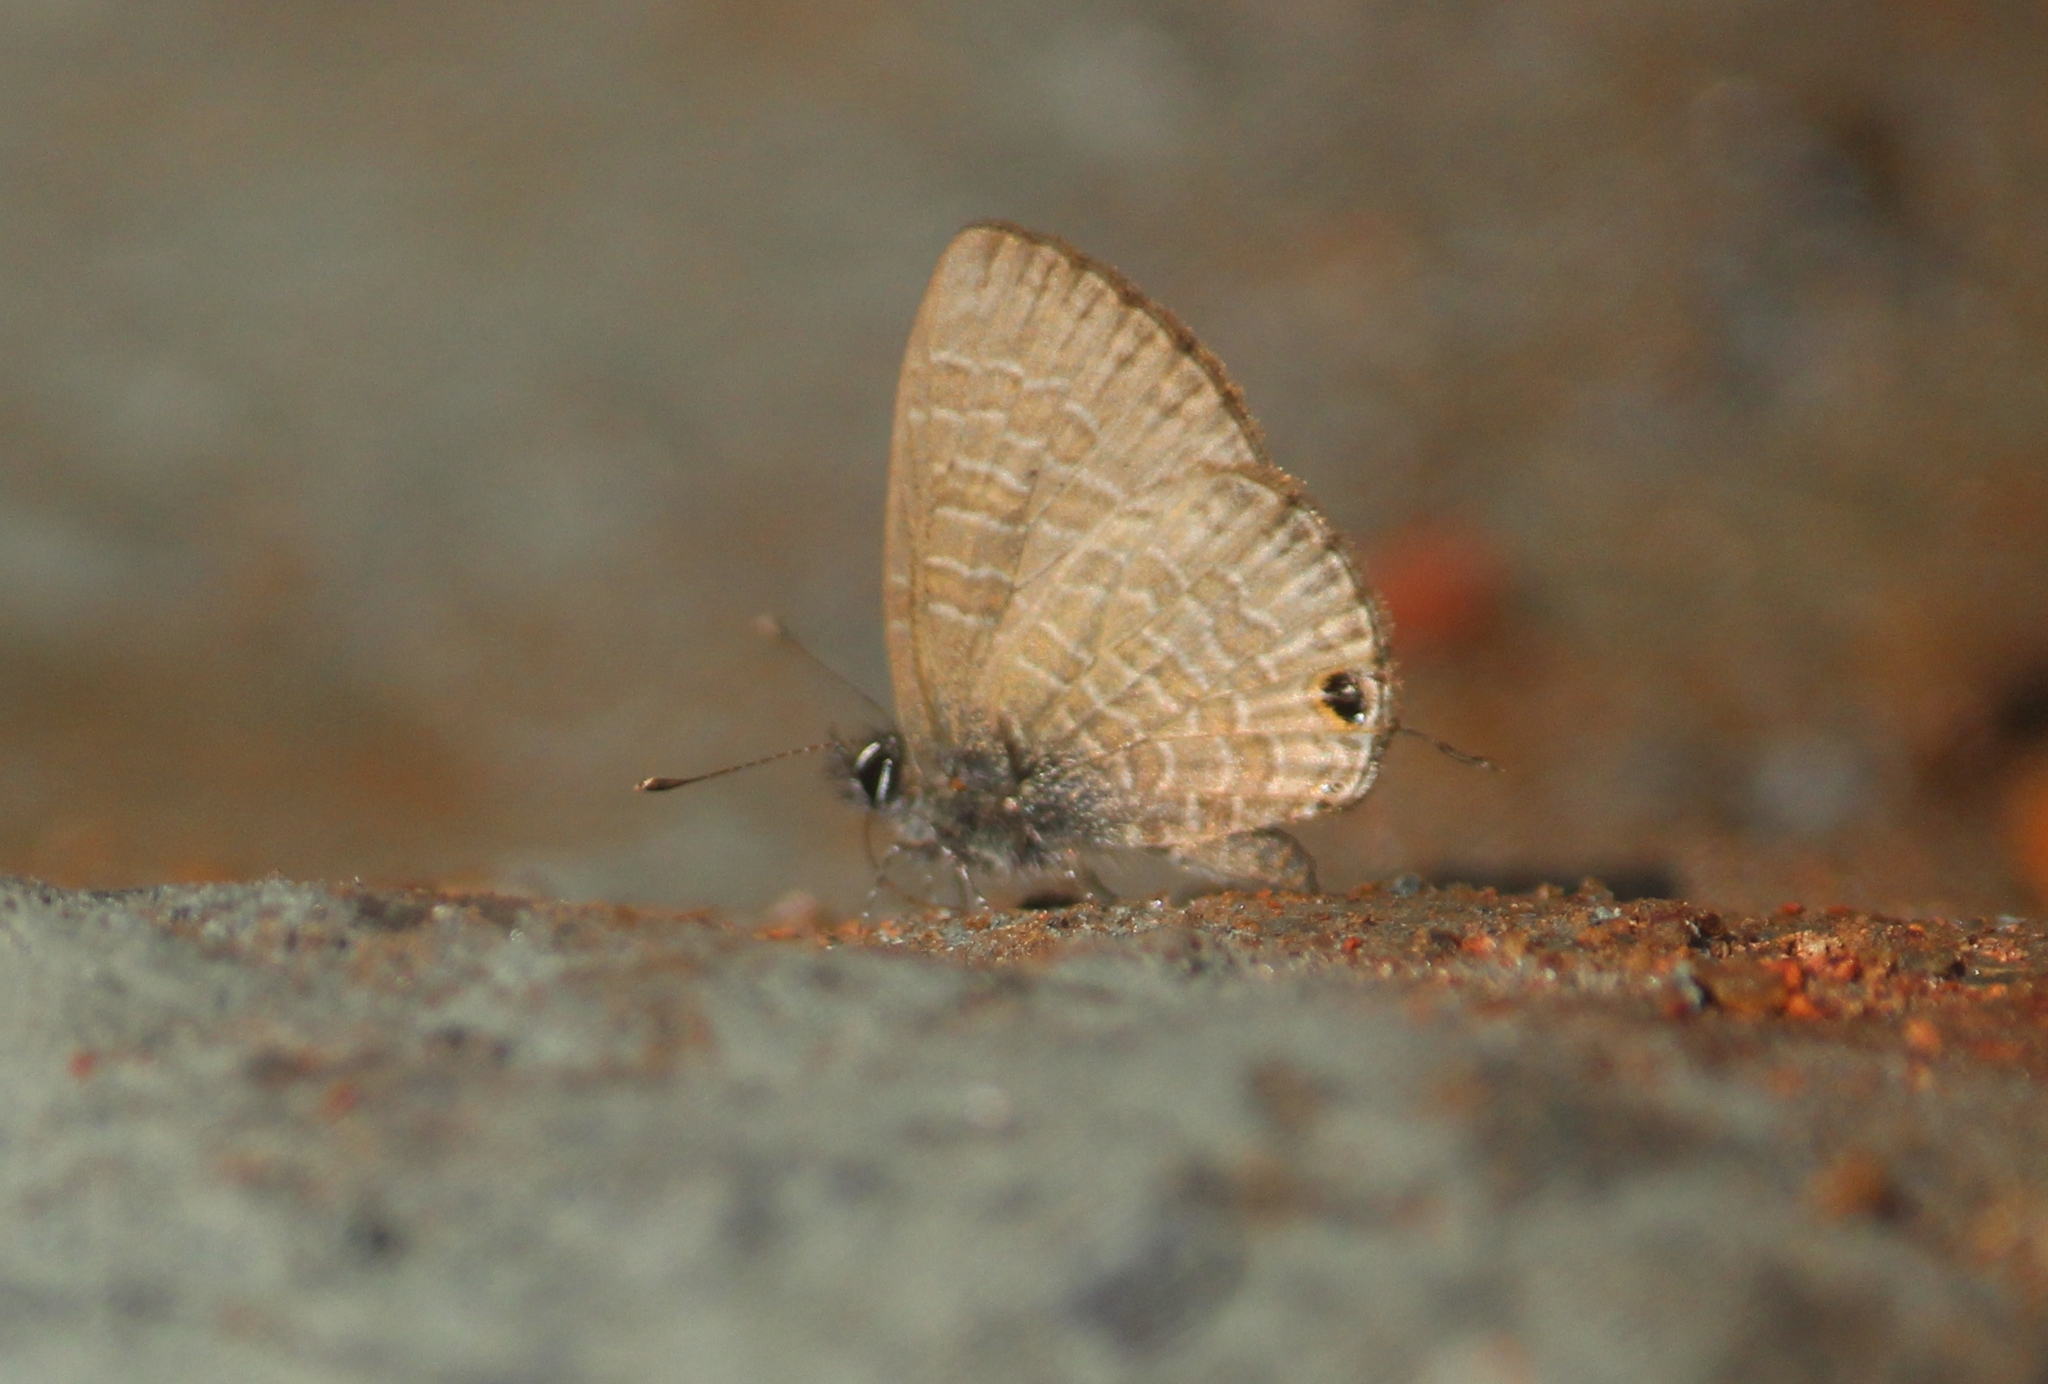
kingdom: Animalia
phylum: Arthropoda
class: Insecta
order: Lepidoptera
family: Lycaenidae
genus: Prosotas
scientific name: Prosotas nora
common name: Common line blue
